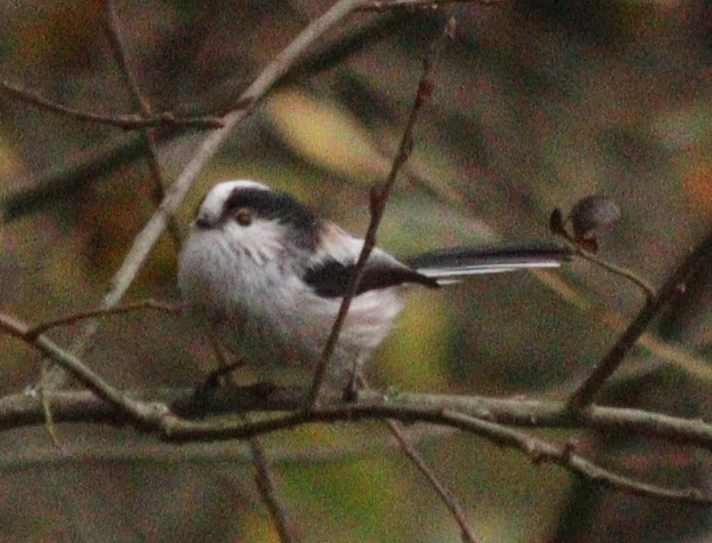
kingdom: Animalia
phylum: Chordata
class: Aves
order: Passeriformes
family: Aegithalidae
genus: Aegithalos
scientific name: Aegithalos caudatus
